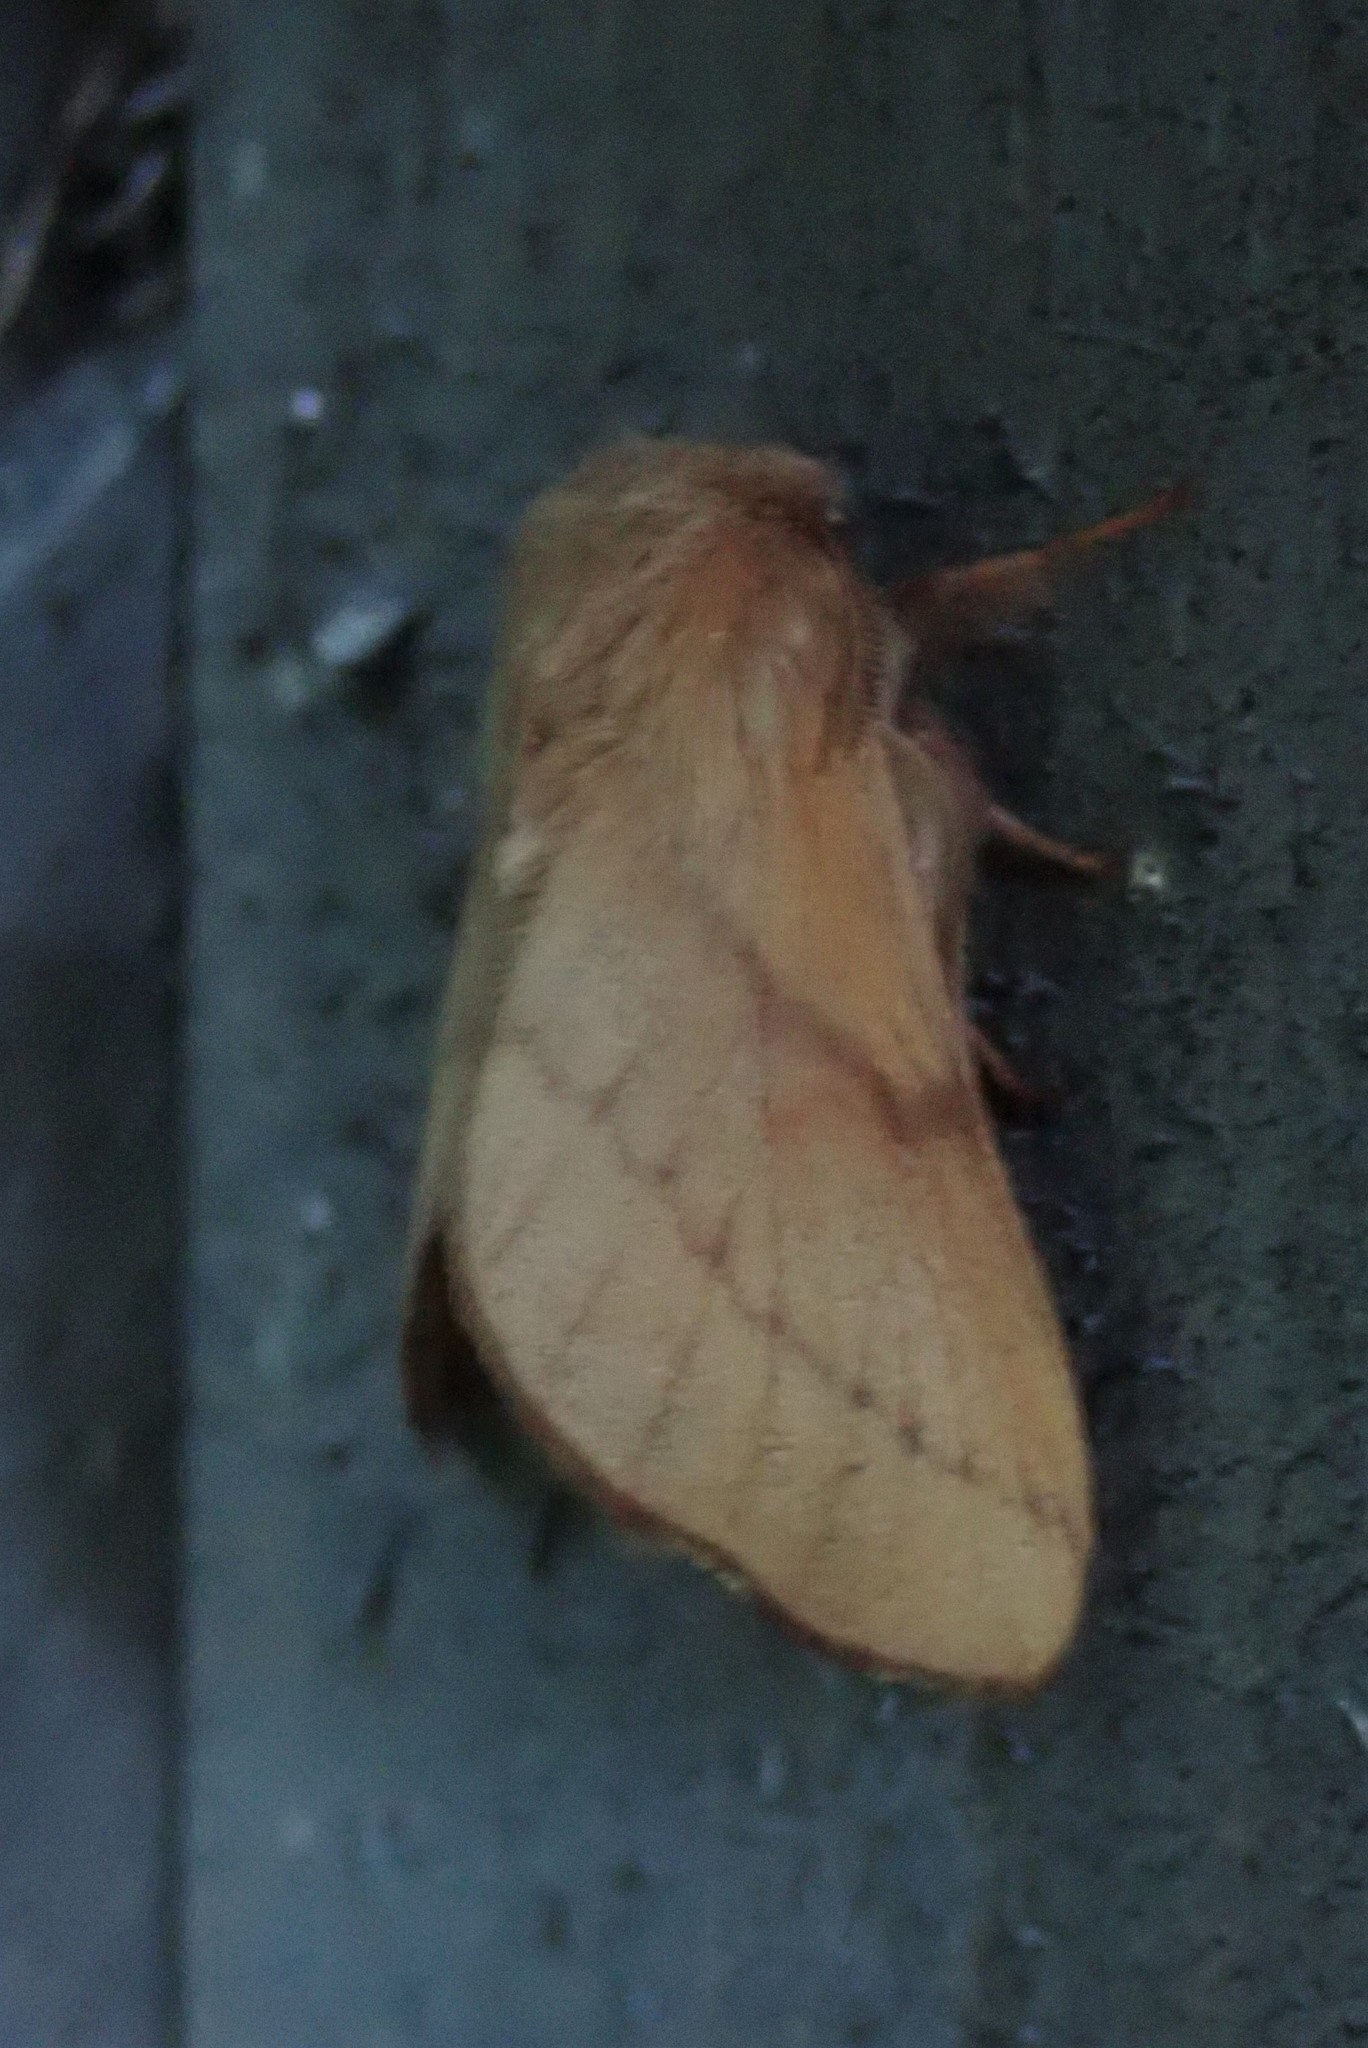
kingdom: Animalia
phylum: Arthropoda
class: Insecta
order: Lepidoptera
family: Lasiocampidae
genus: Malacosoma
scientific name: Malacosoma disstria
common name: Forest tent caterpillar
